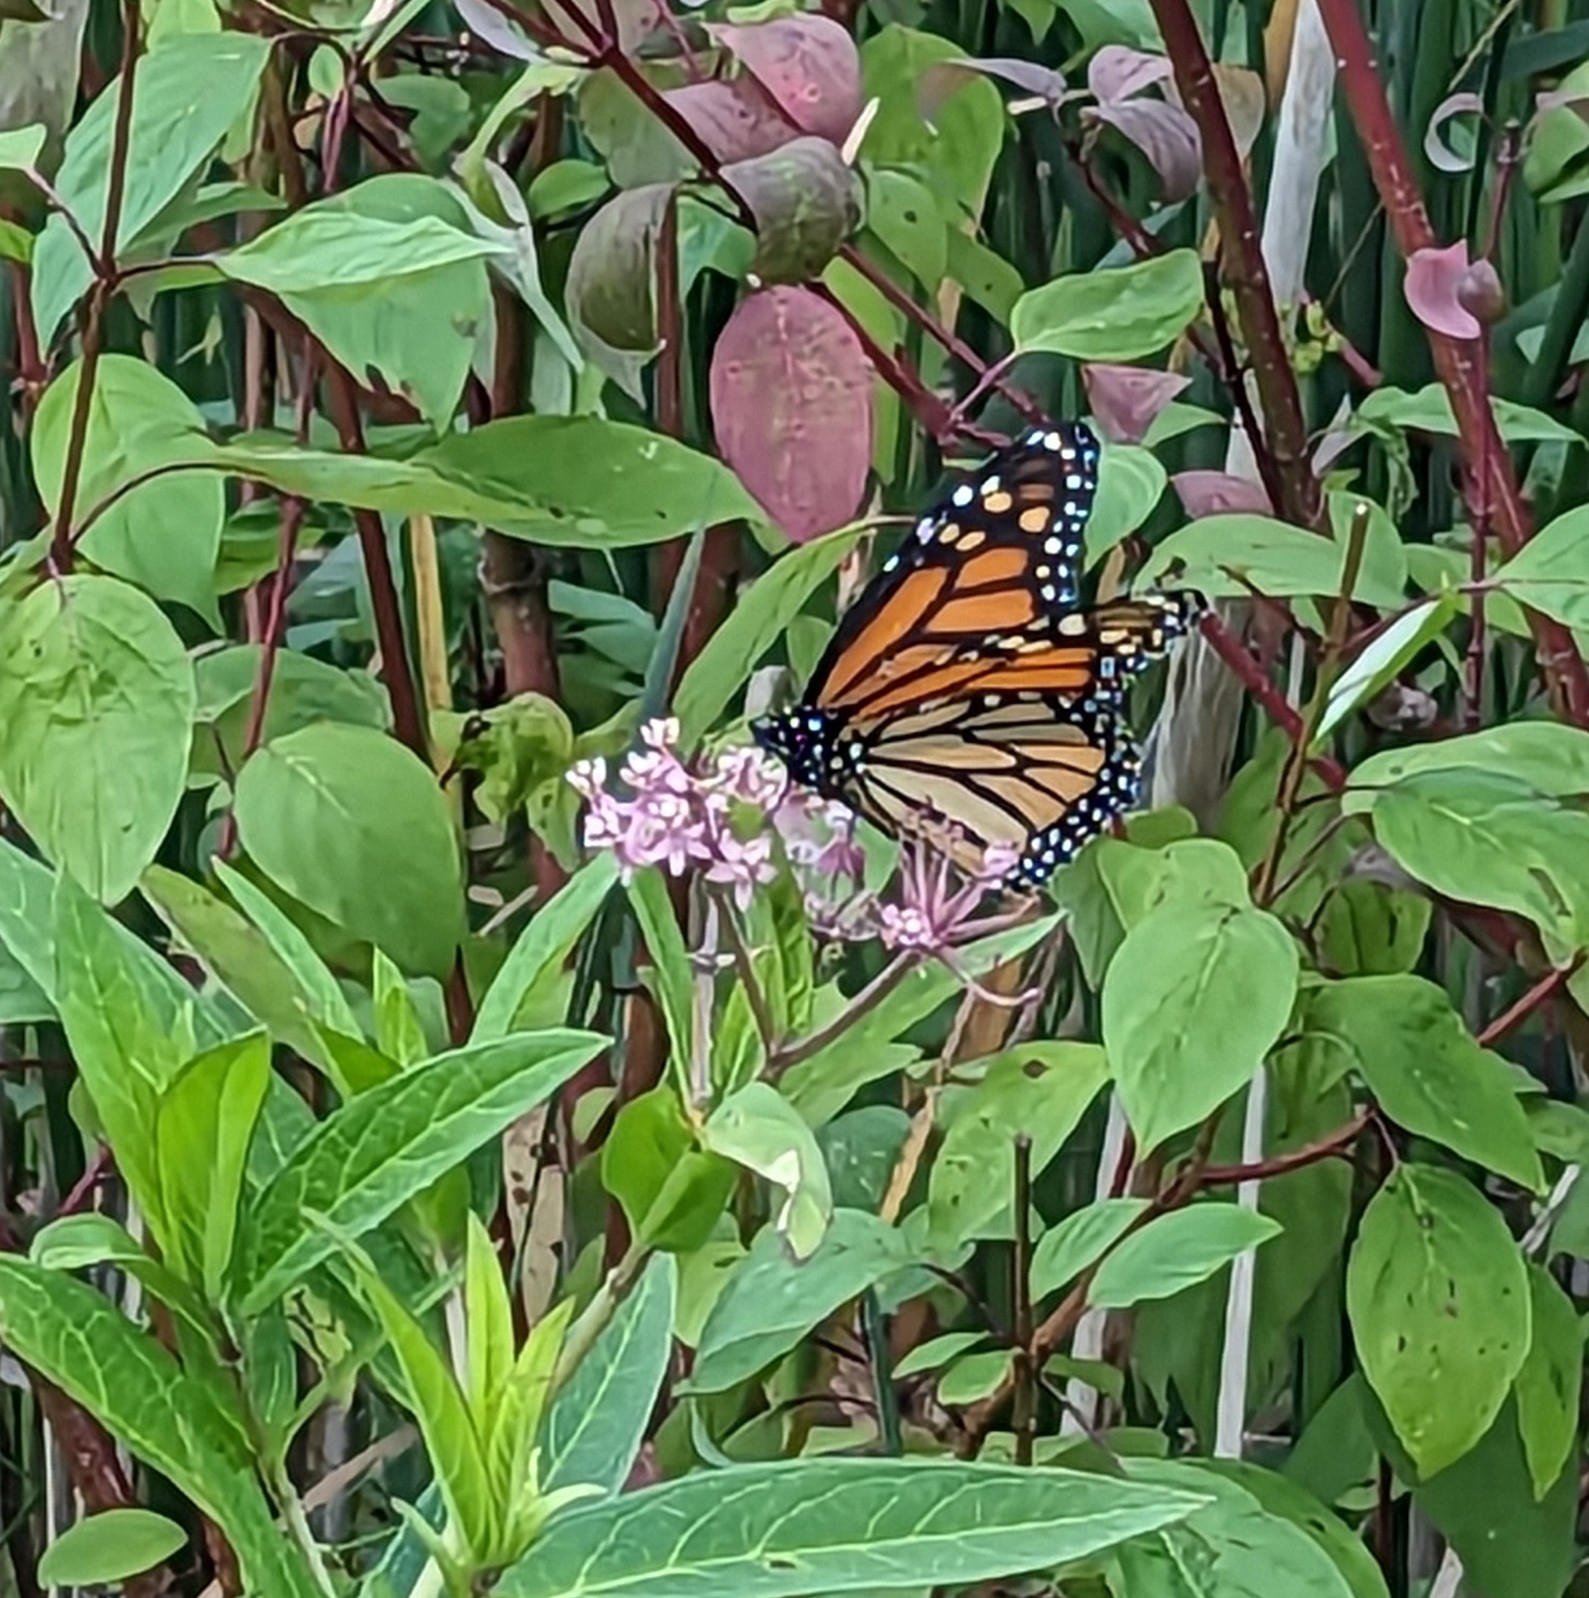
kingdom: Animalia
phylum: Arthropoda
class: Insecta
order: Lepidoptera
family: Nymphalidae
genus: Danaus
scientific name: Danaus plexippus
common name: Monarch
